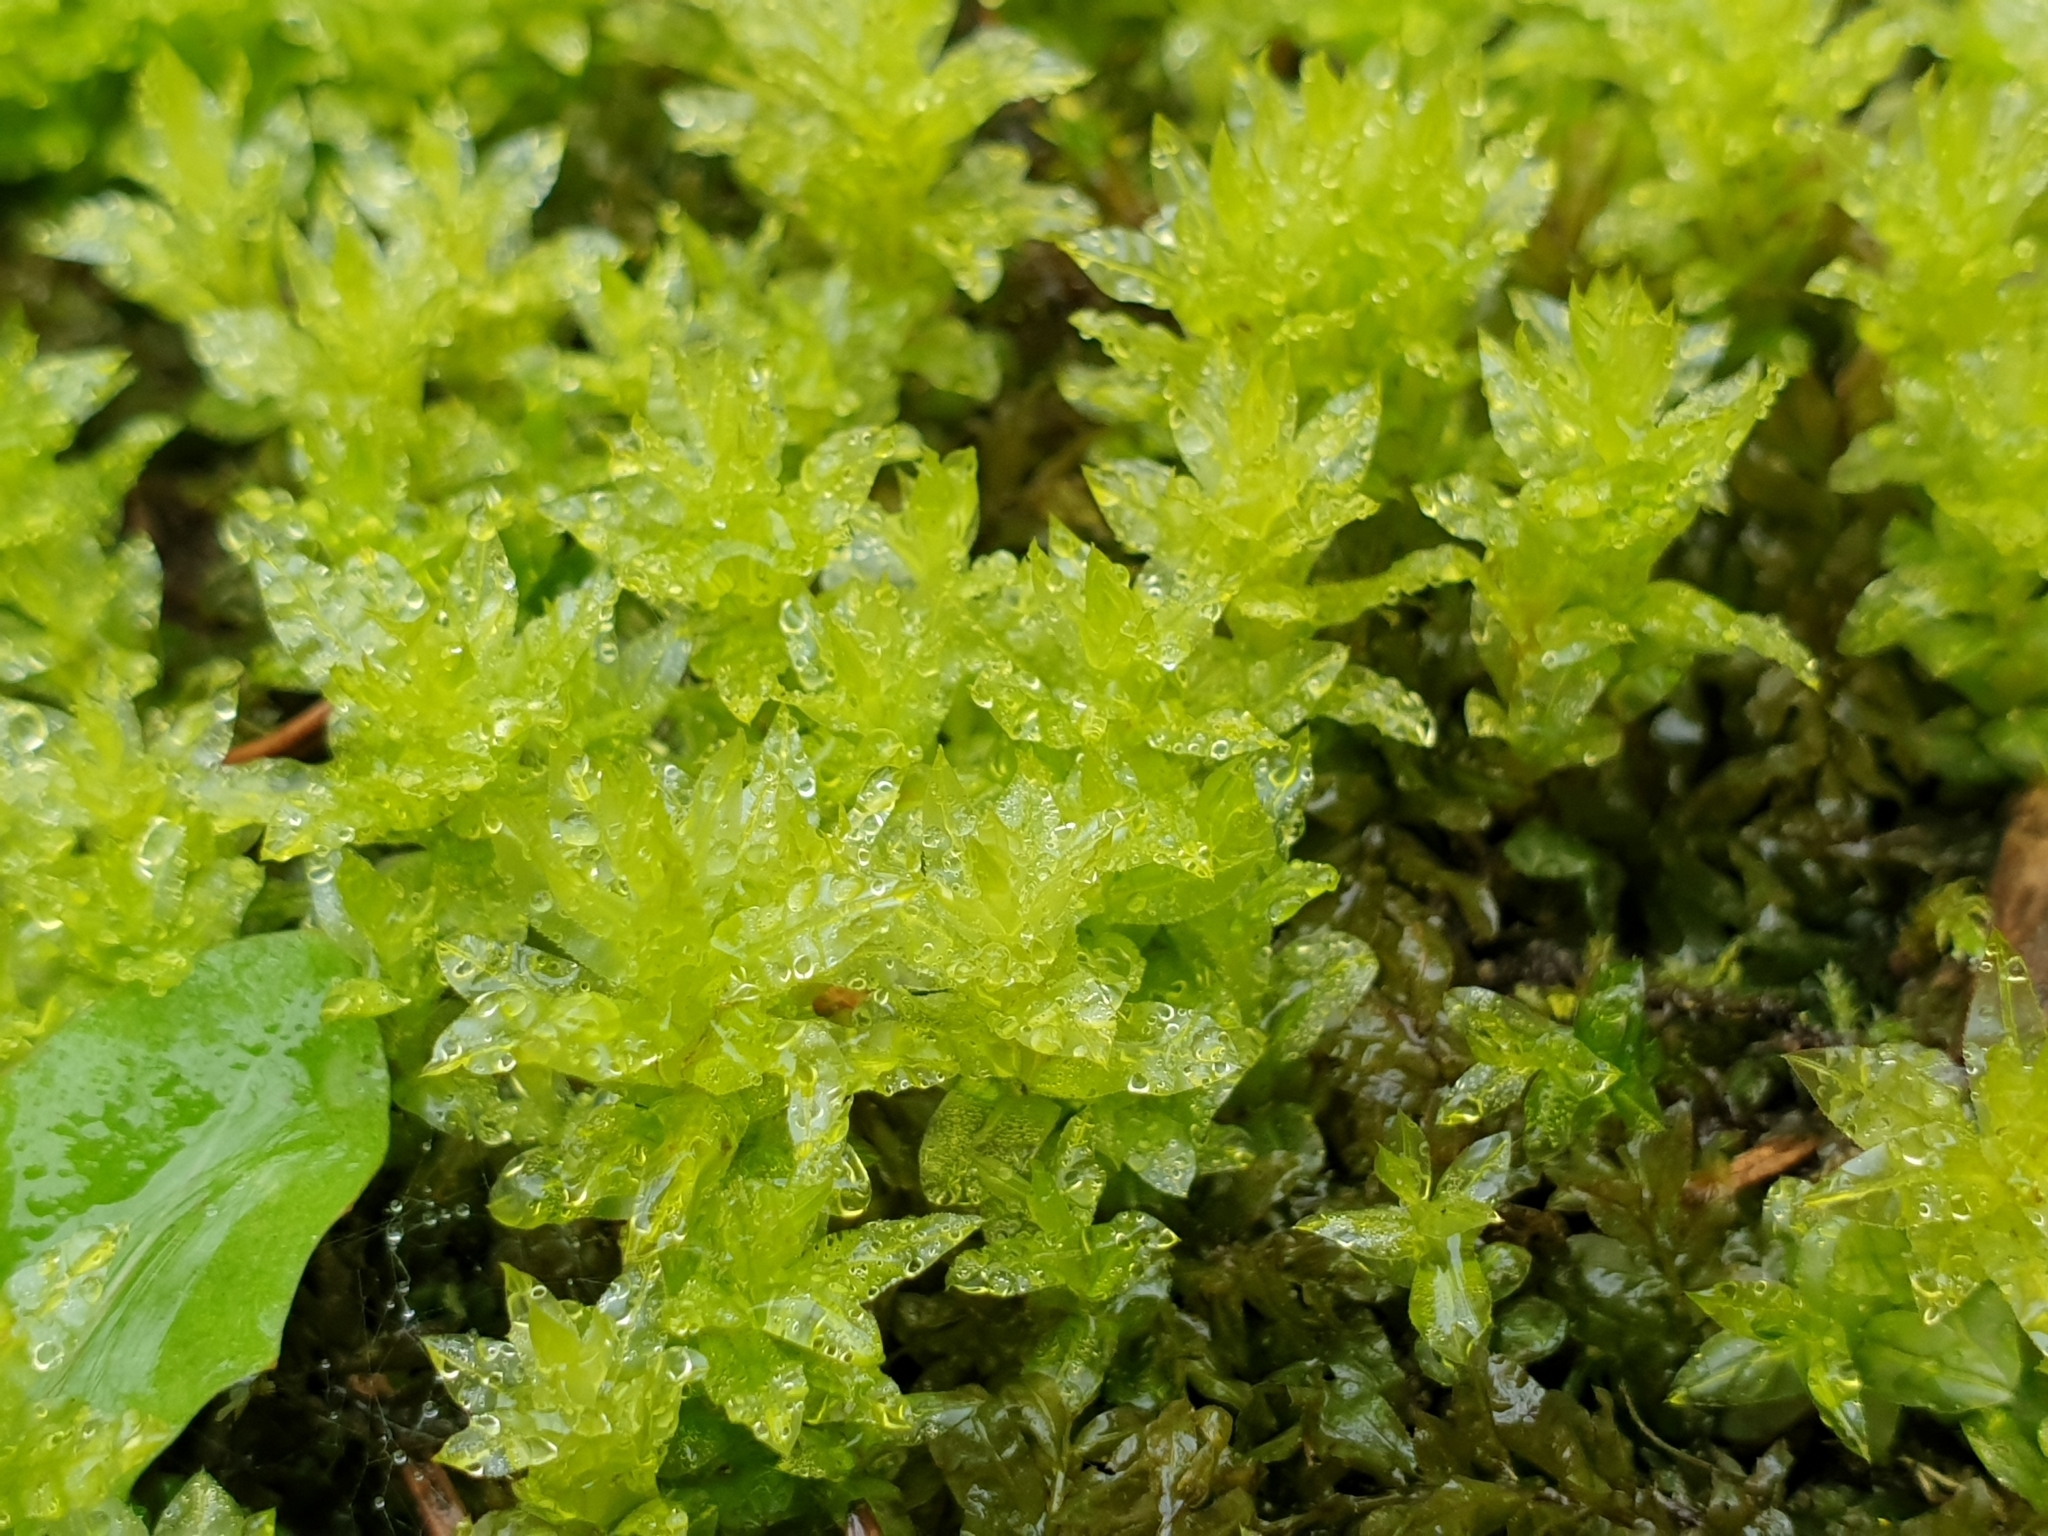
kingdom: Plantae
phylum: Bryophyta
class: Bryopsida
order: Bryales
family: Mniaceae
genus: Plagiomnium
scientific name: Plagiomnium undulatum
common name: Hart's-tongue thyme-moss
